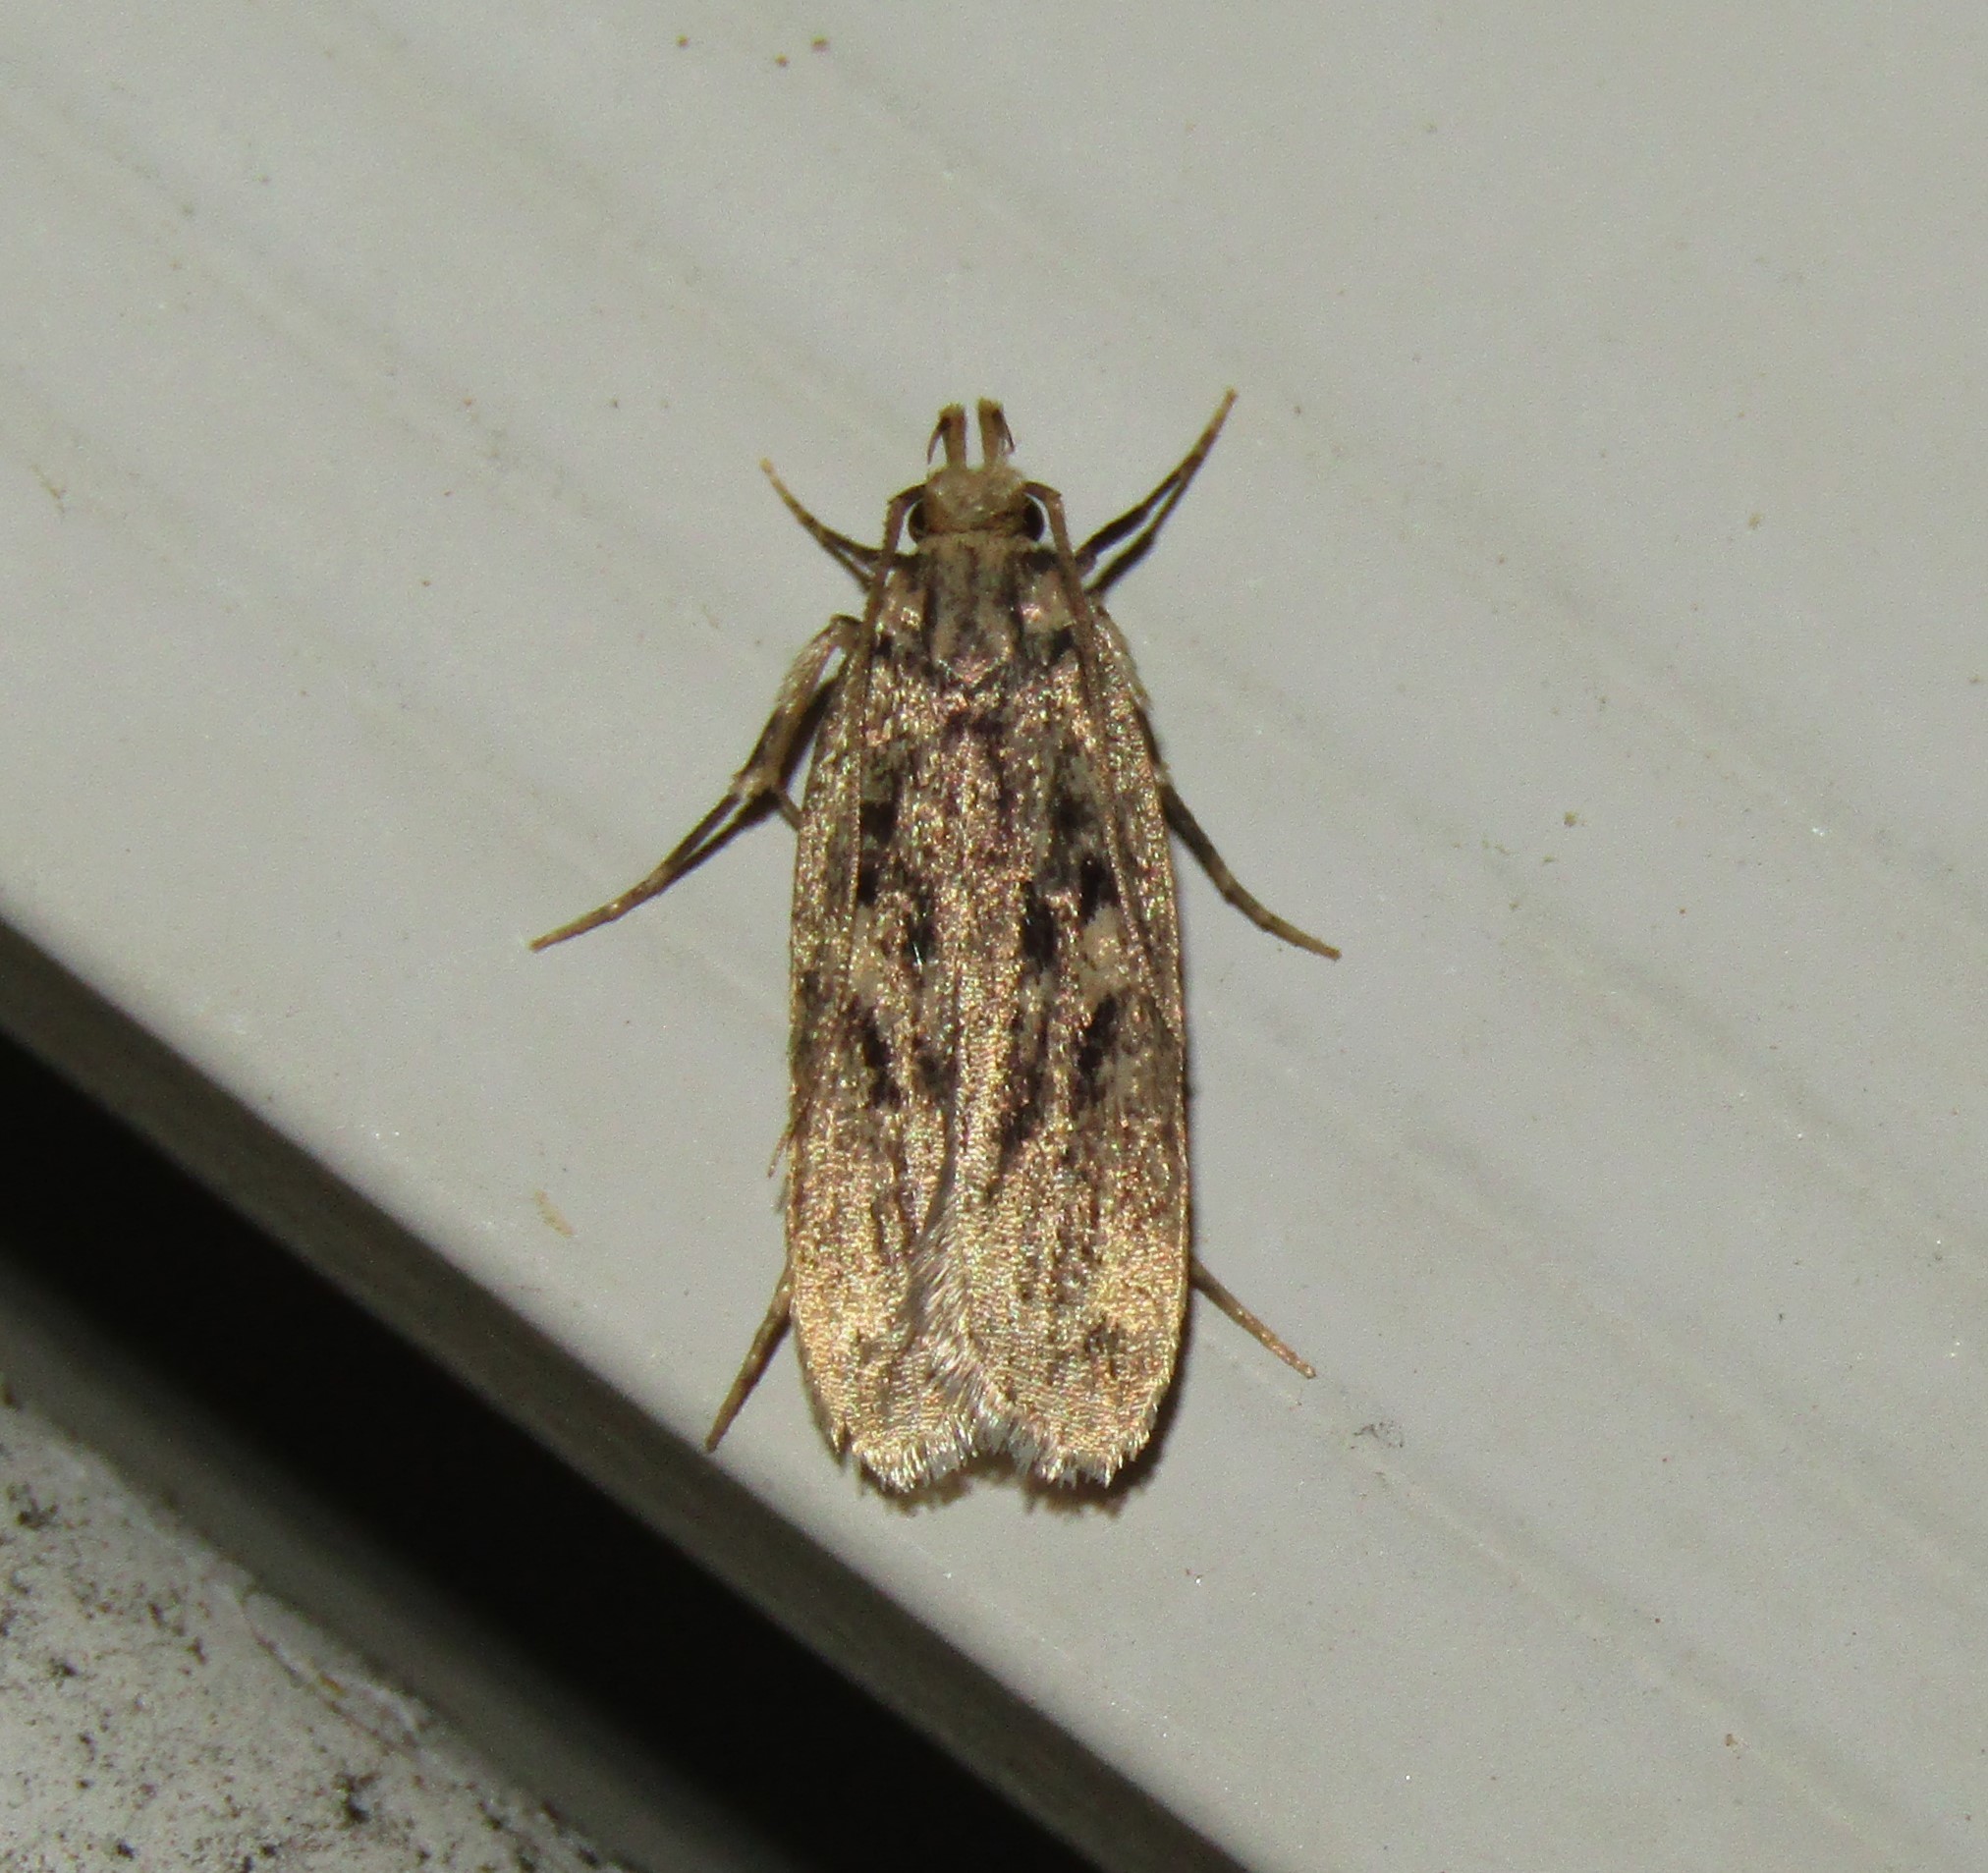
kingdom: Animalia
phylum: Arthropoda
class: Insecta
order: Lepidoptera
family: Lecithoceridae
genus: Martyringa
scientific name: Martyringa latipennis
